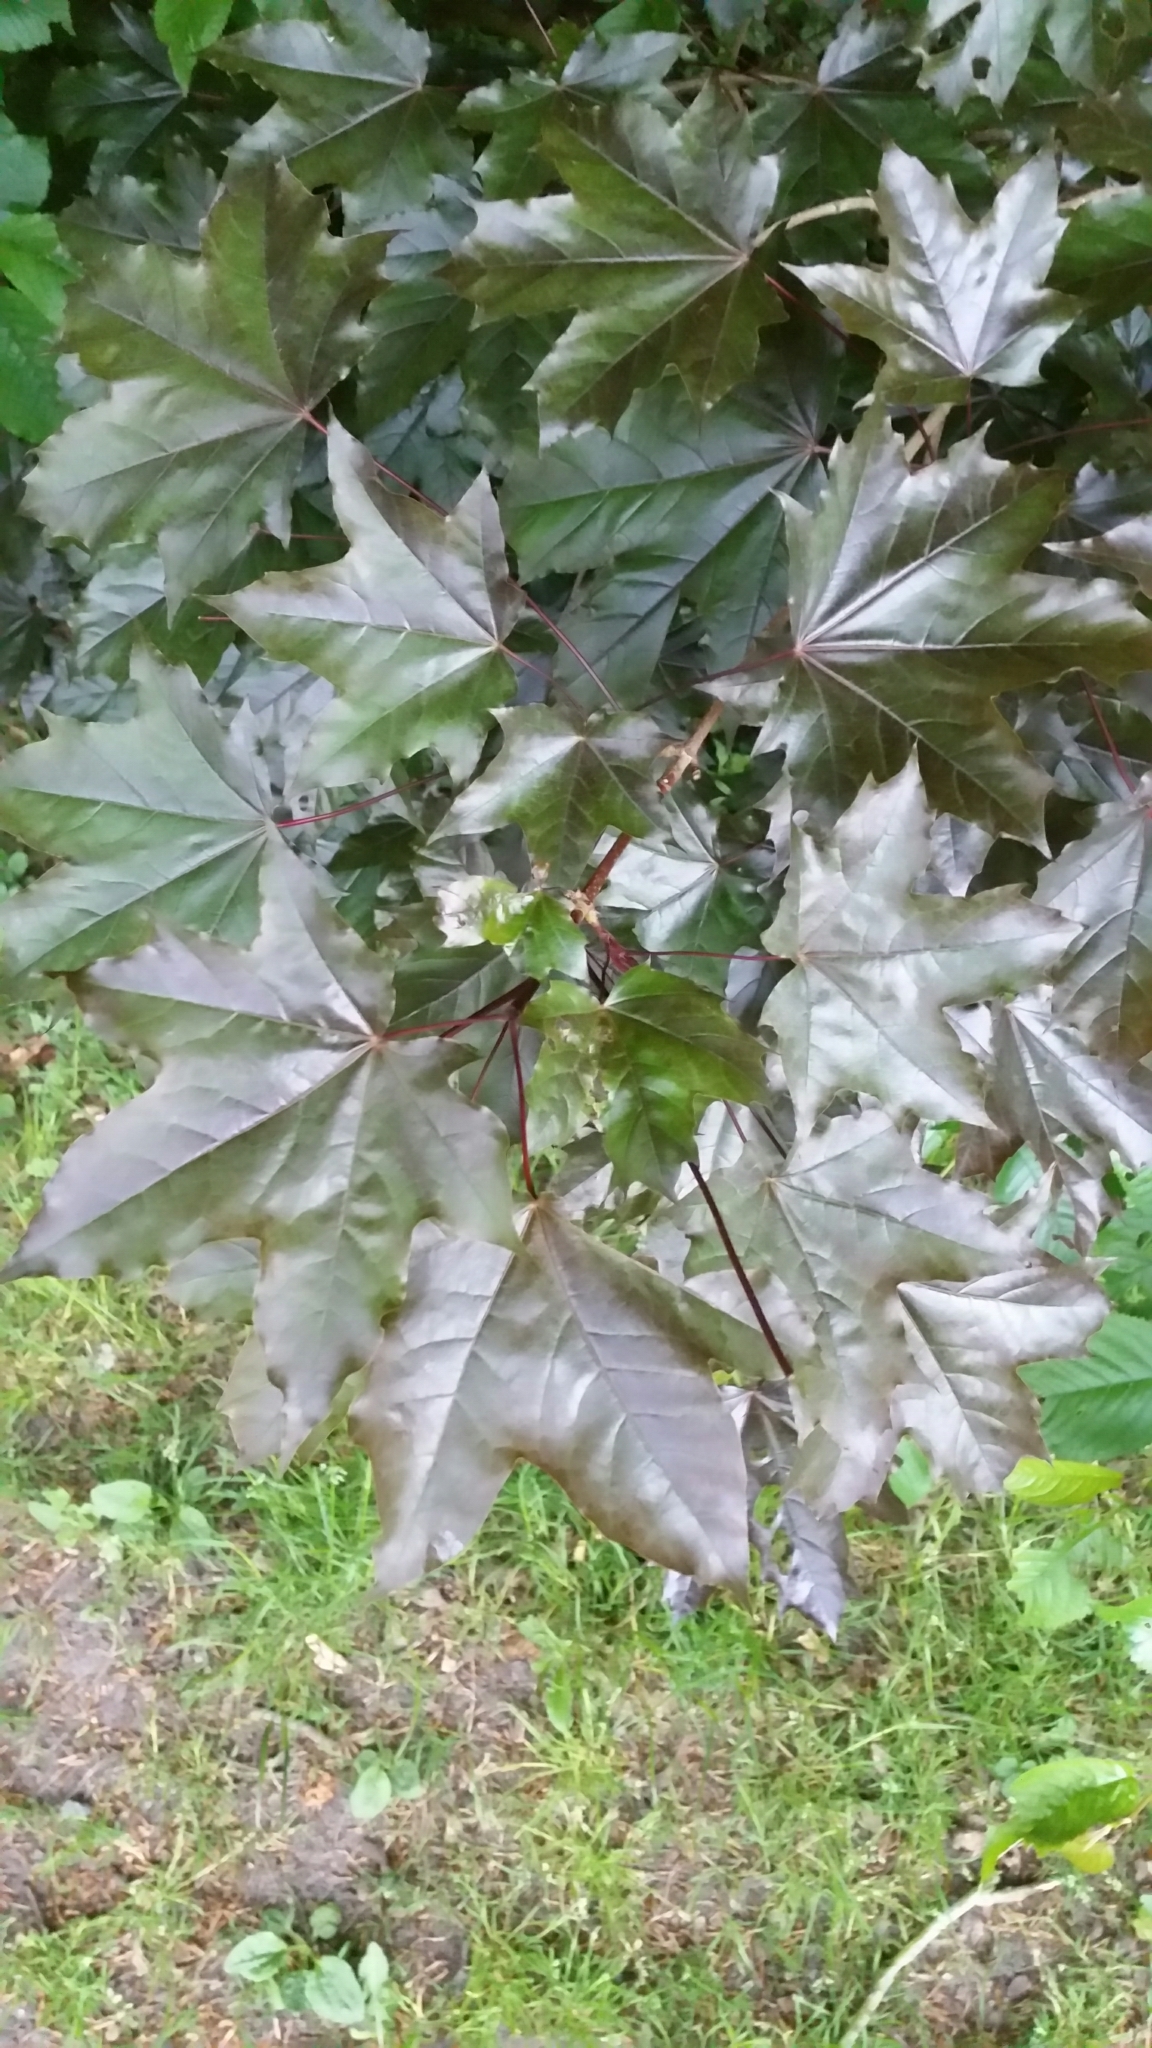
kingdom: Plantae
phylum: Tracheophyta
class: Magnoliopsida
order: Sapindales
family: Sapindaceae
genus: Acer
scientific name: Acer platanoides
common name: Norway maple
